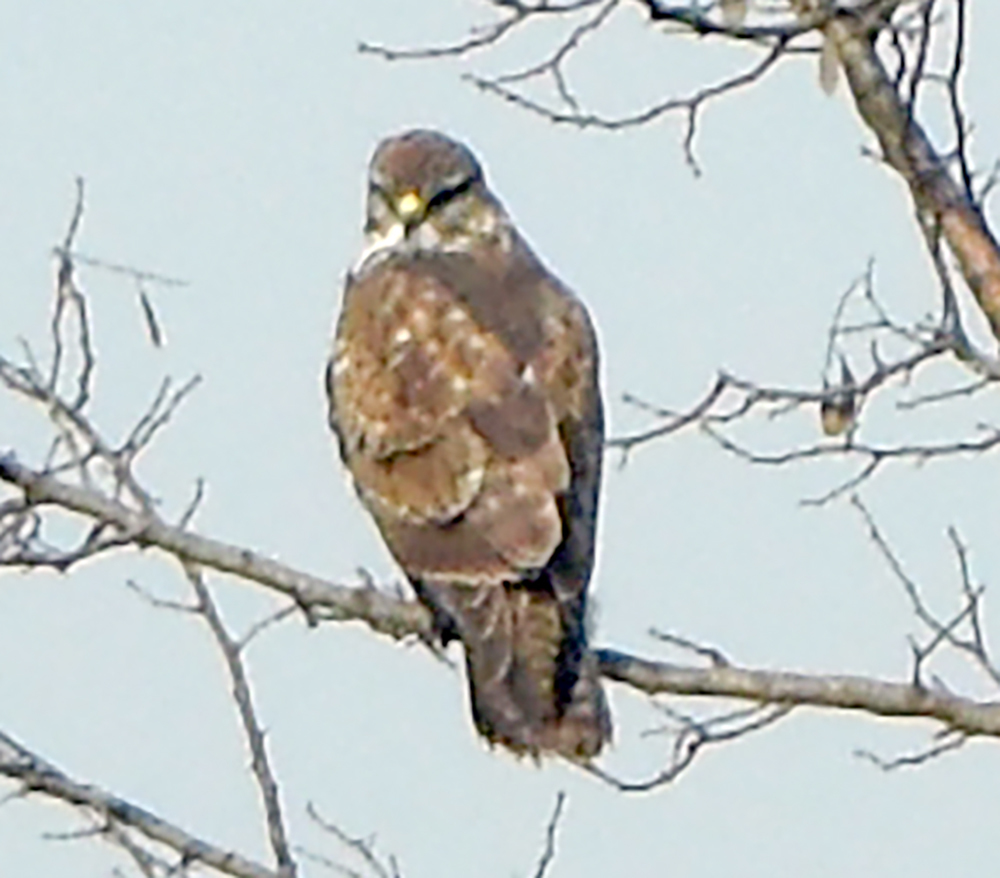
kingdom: Animalia
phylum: Chordata
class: Aves
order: Accipitriformes
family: Accipitridae
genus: Buteo
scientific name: Buteo buteo
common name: Common buzzard
